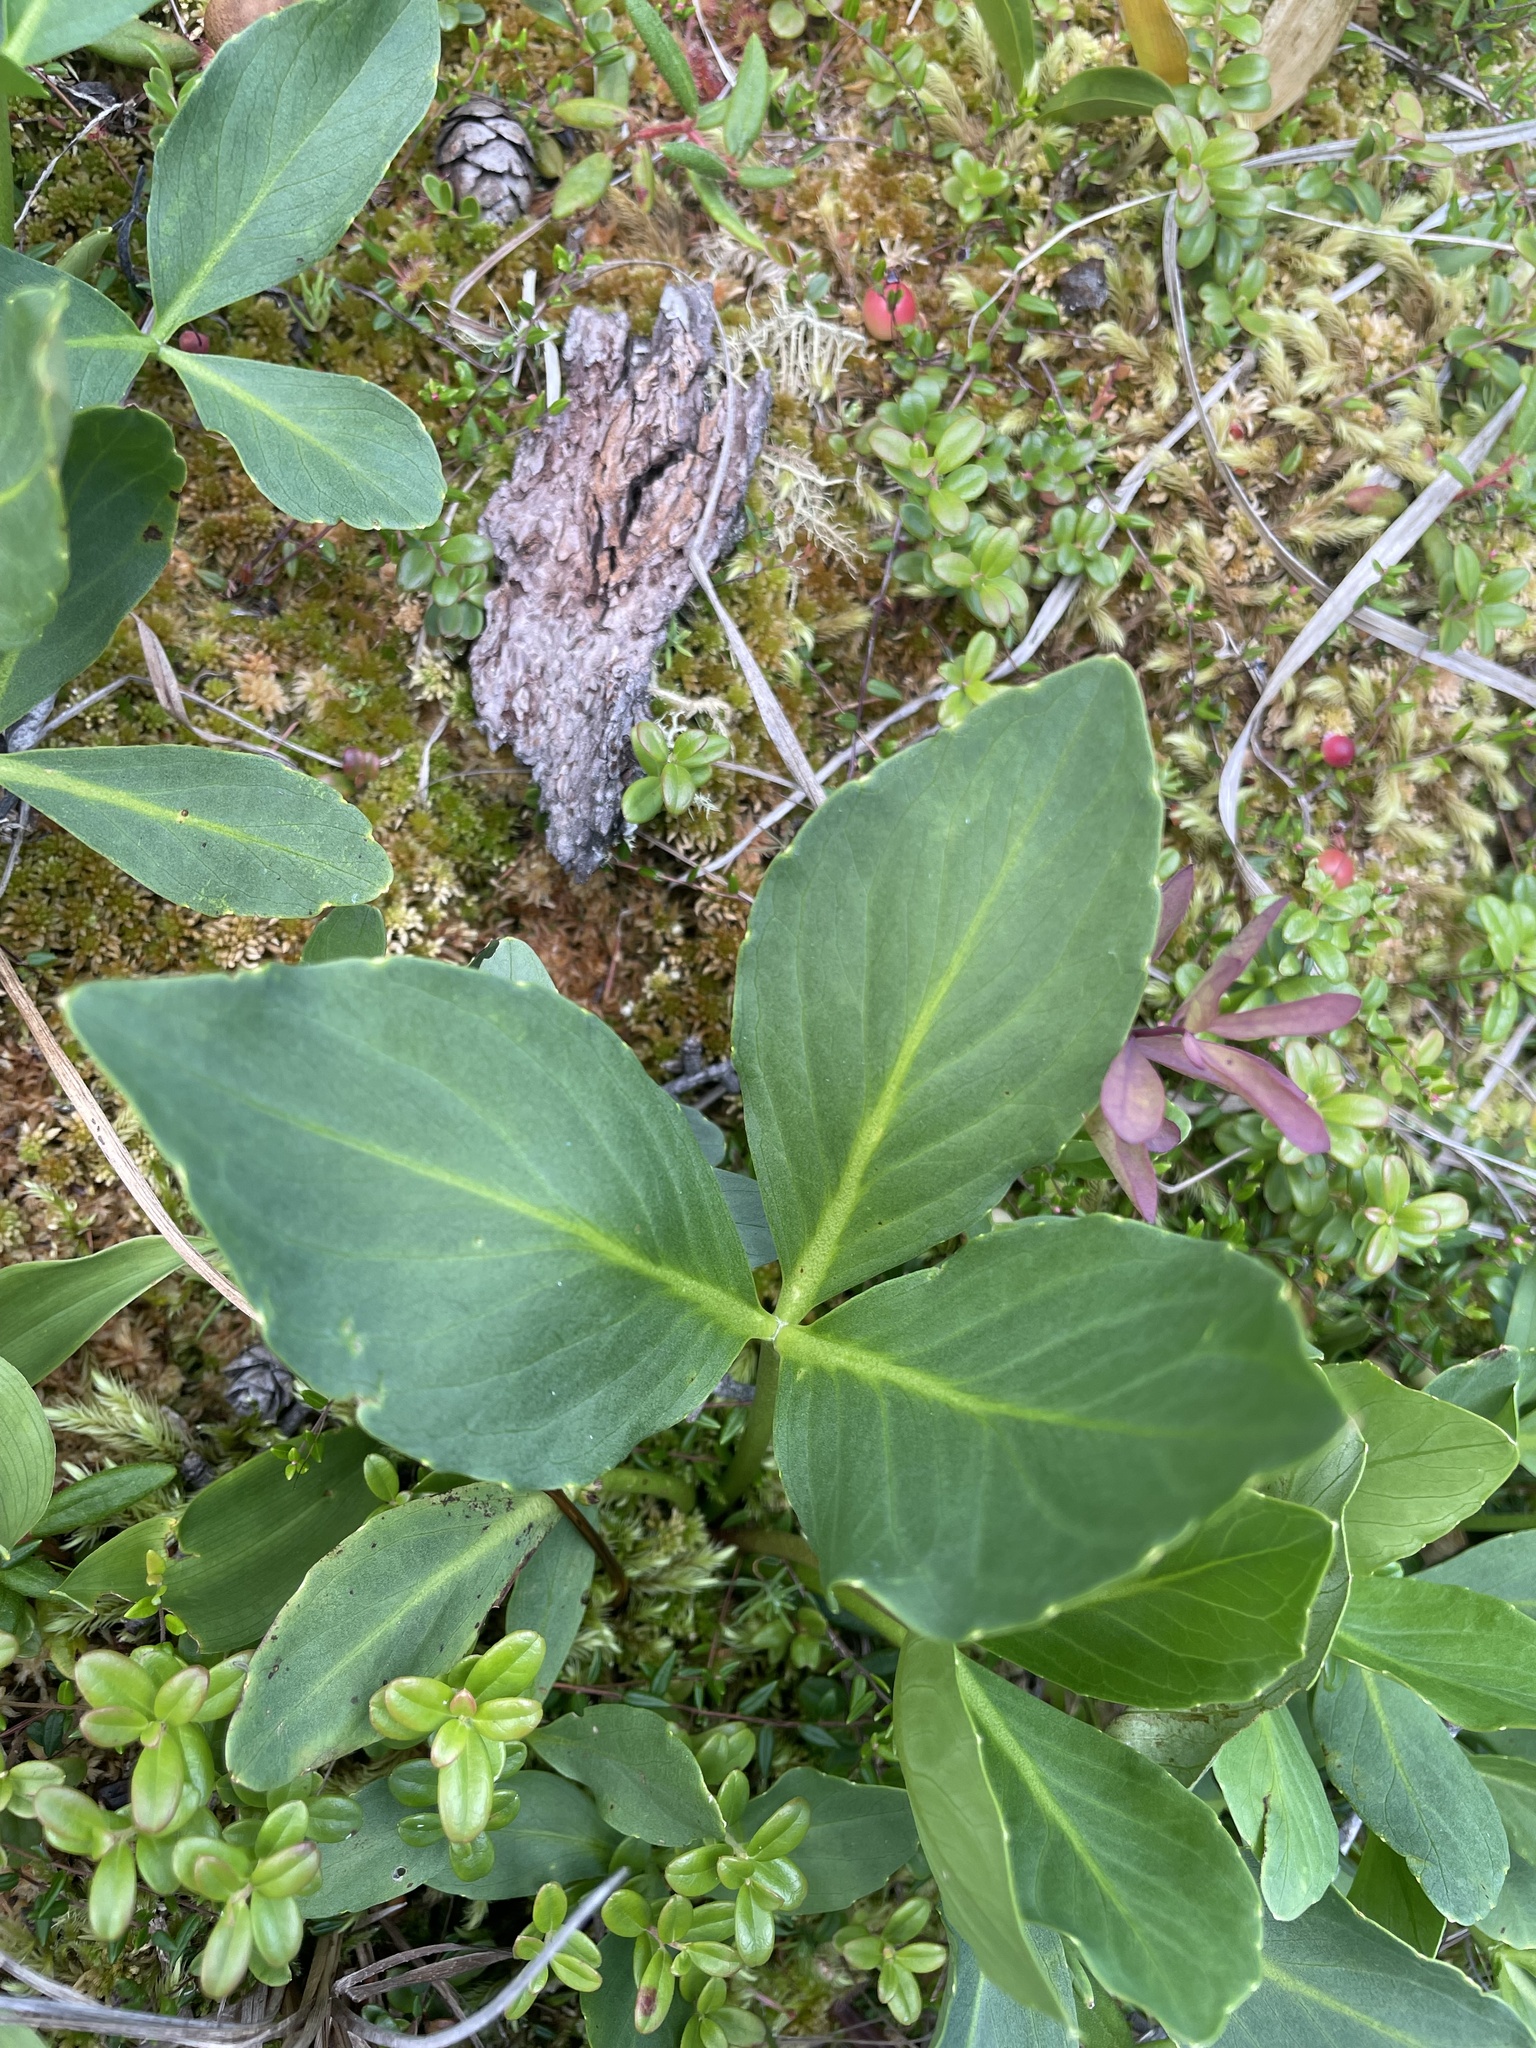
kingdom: Plantae
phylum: Tracheophyta
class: Magnoliopsida
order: Asterales
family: Menyanthaceae
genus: Menyanthes
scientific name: Menyanthes trifoliata
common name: Bogbean
